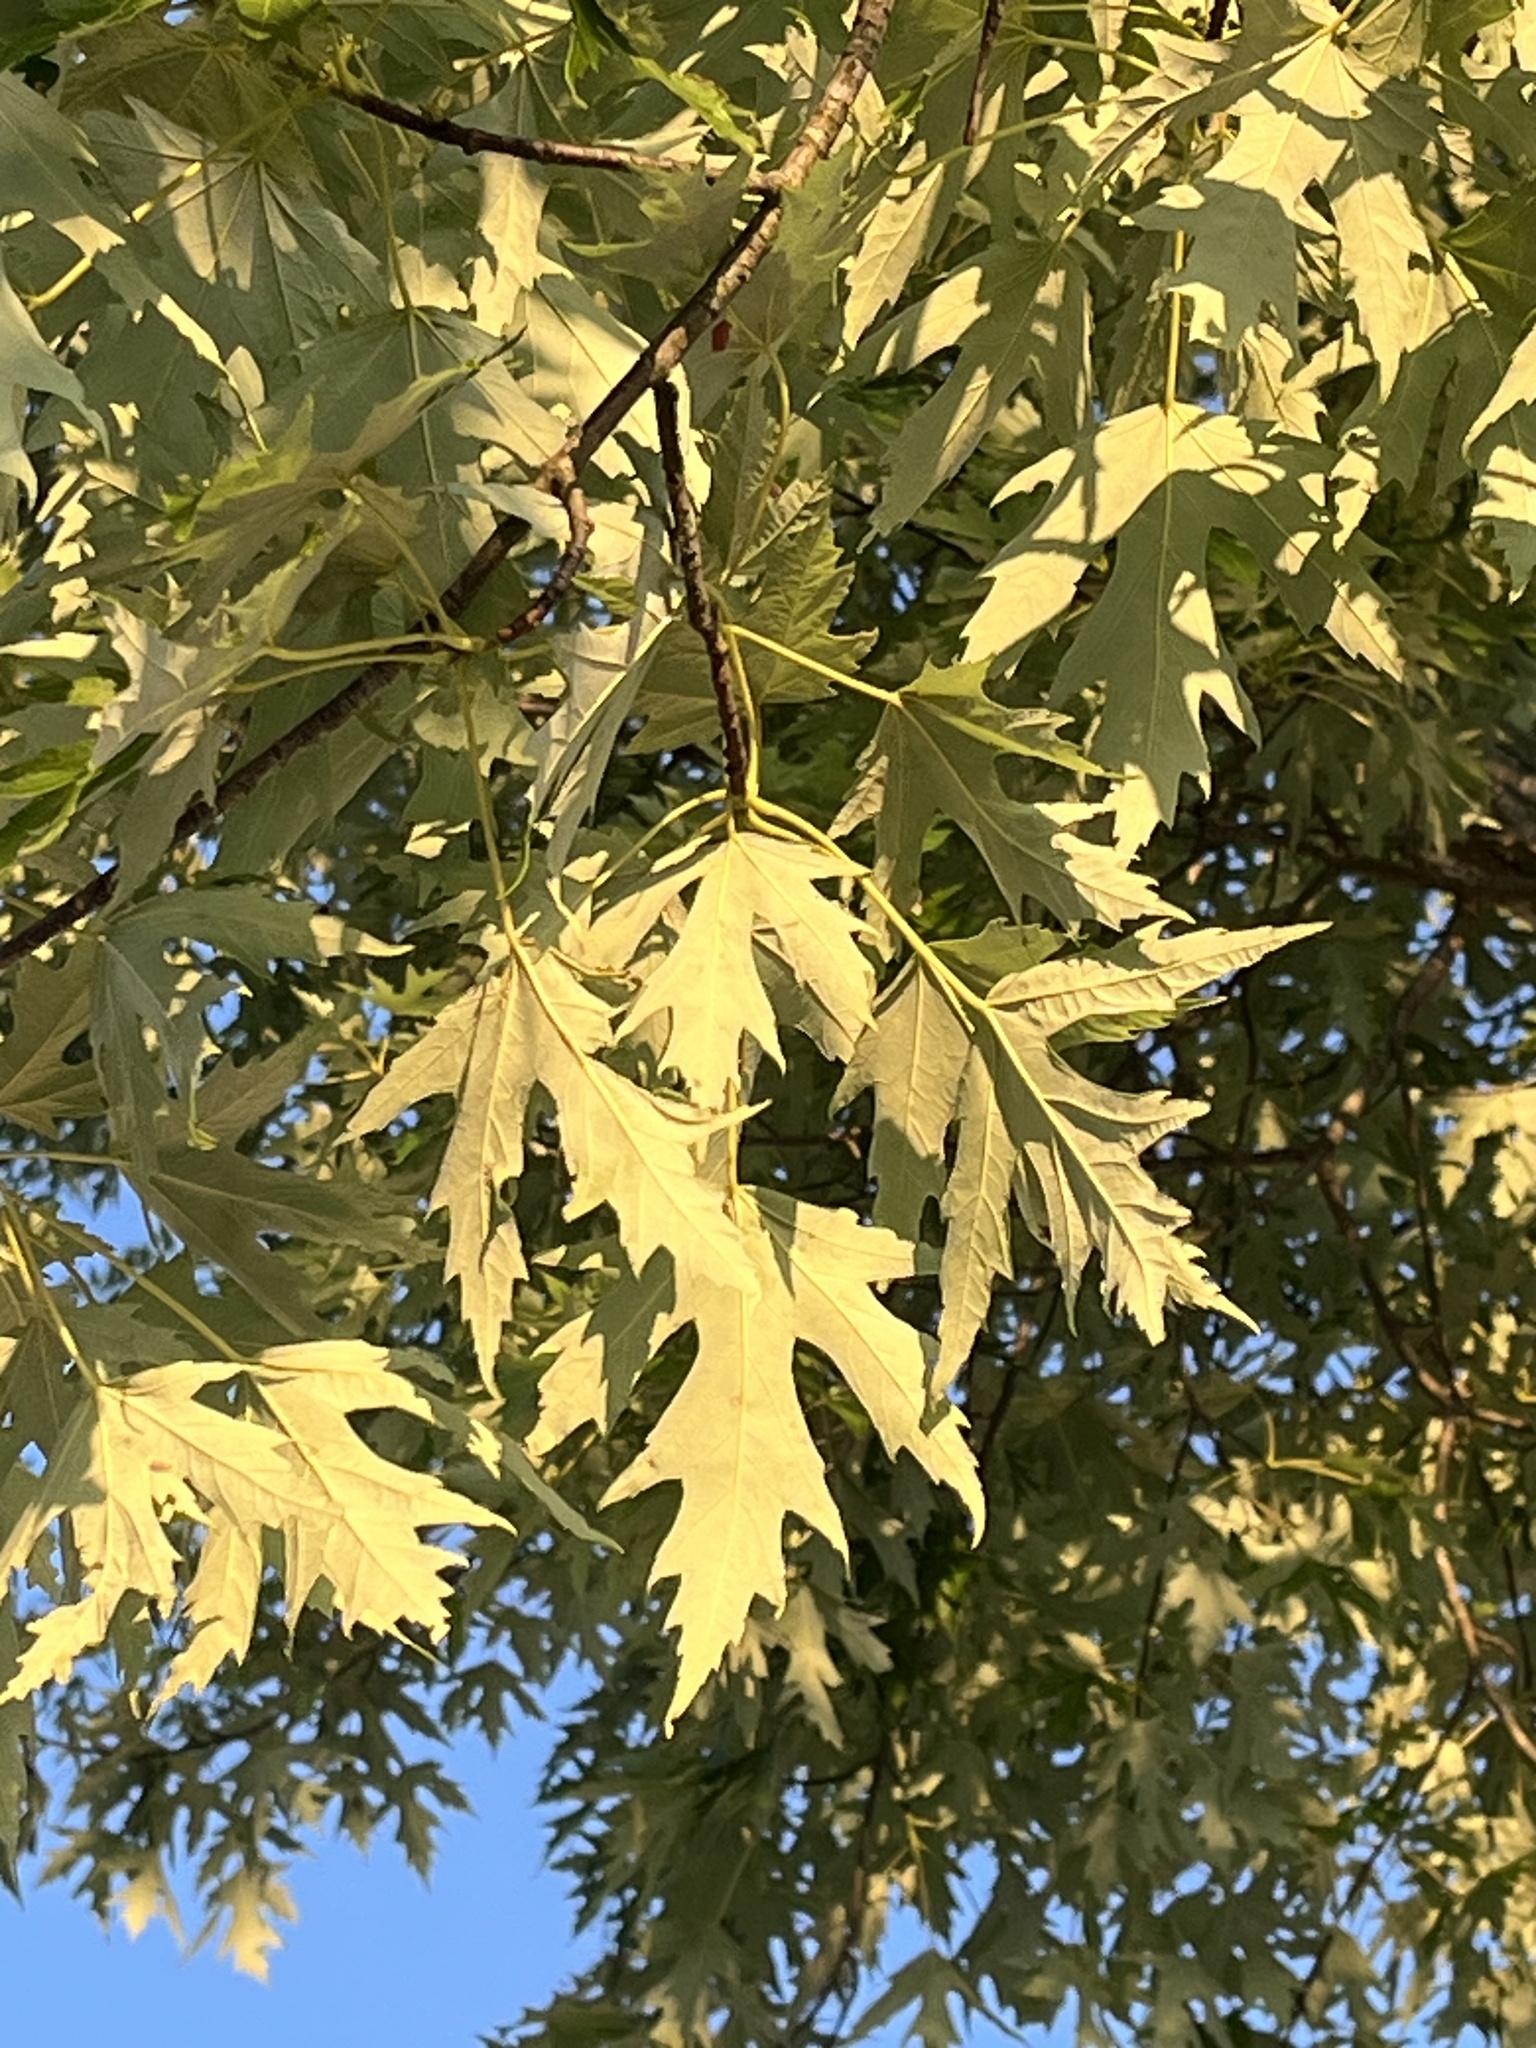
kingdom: Plantae
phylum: Tracheophyta
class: Magnoliopsida
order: Sapindales
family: Sapindaceae
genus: Acer
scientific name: Acer saccharinum
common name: Silver maple
